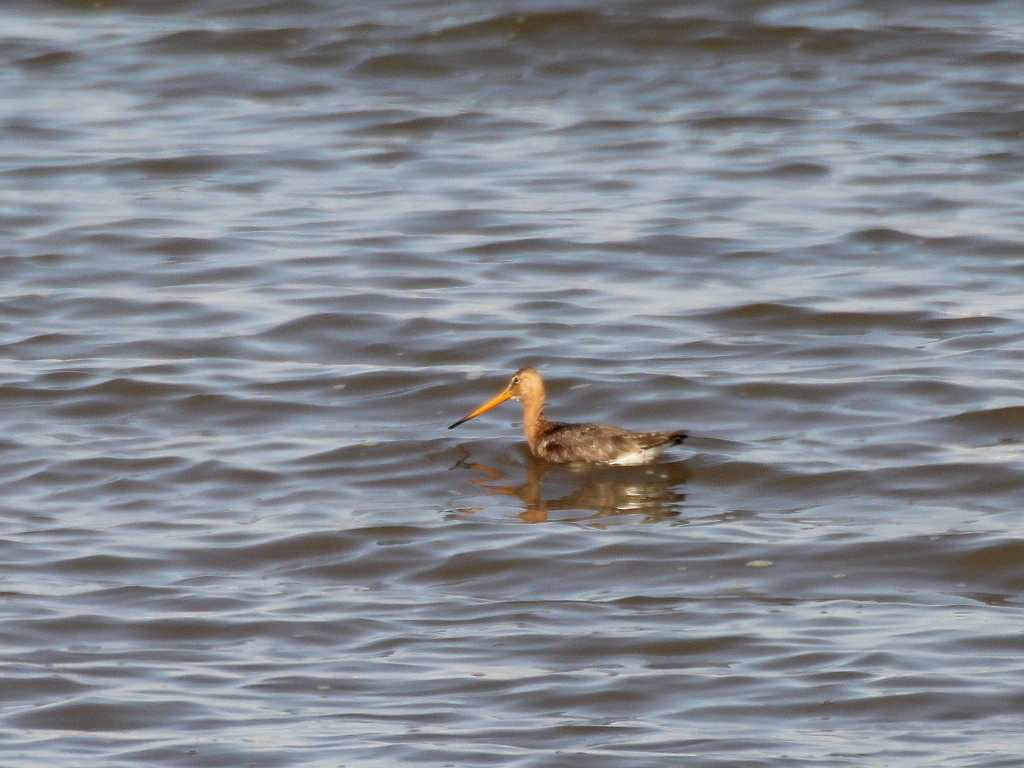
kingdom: Animalia
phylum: Chordata
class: Aves
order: Charadriiformes
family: Scolopacidae
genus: Limosa
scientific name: Limosa limosa
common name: Black-tailed godwit
